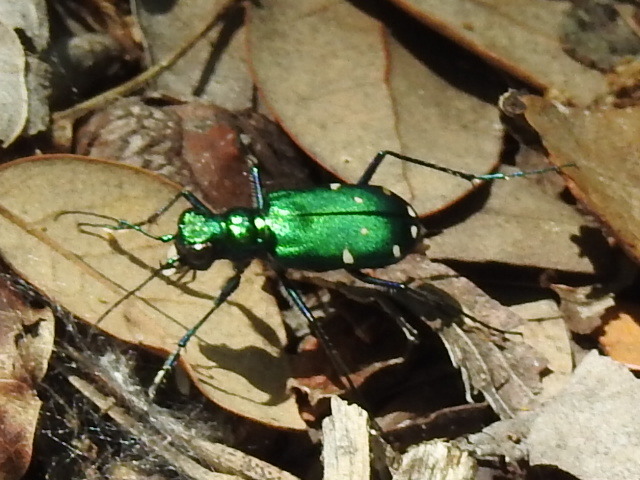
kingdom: Animalia
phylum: Arthropoda
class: Insecta
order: Coleoptera
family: Carabidae
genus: Cicindela
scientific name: Cicindela sexguttata
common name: Six-spotted tiger beetle
